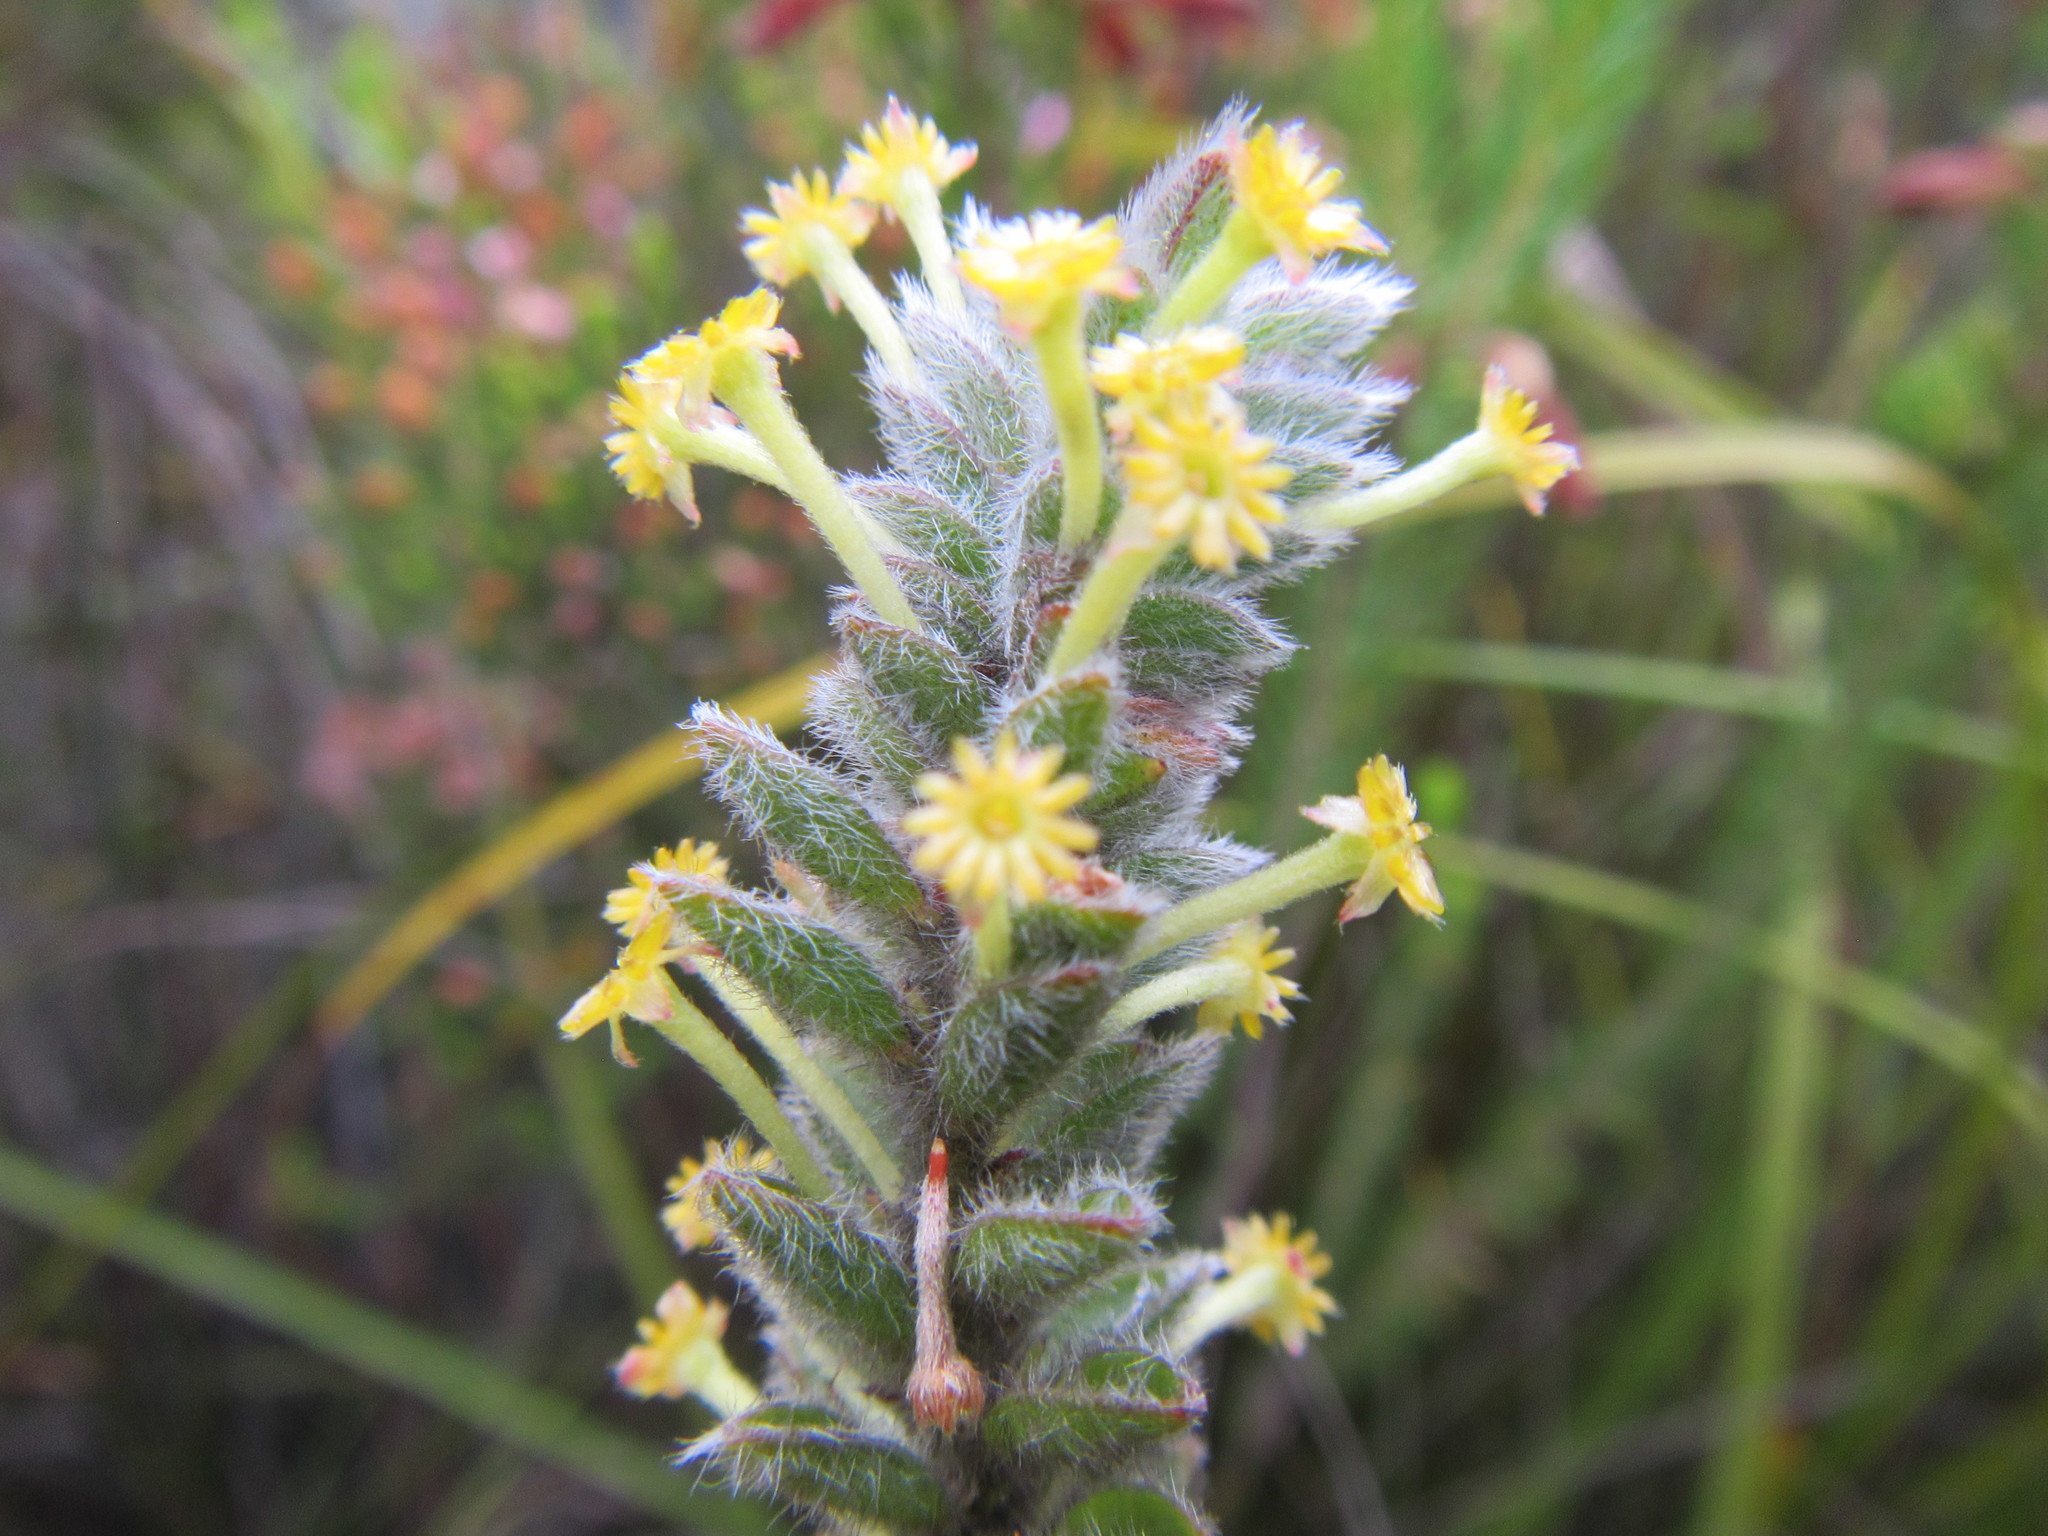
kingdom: Plantae
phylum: Tracheophyta
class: Magnoliopsida
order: Malvales
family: Thymelaeaceae
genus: Struthiola
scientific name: Struthiola tomentosa
